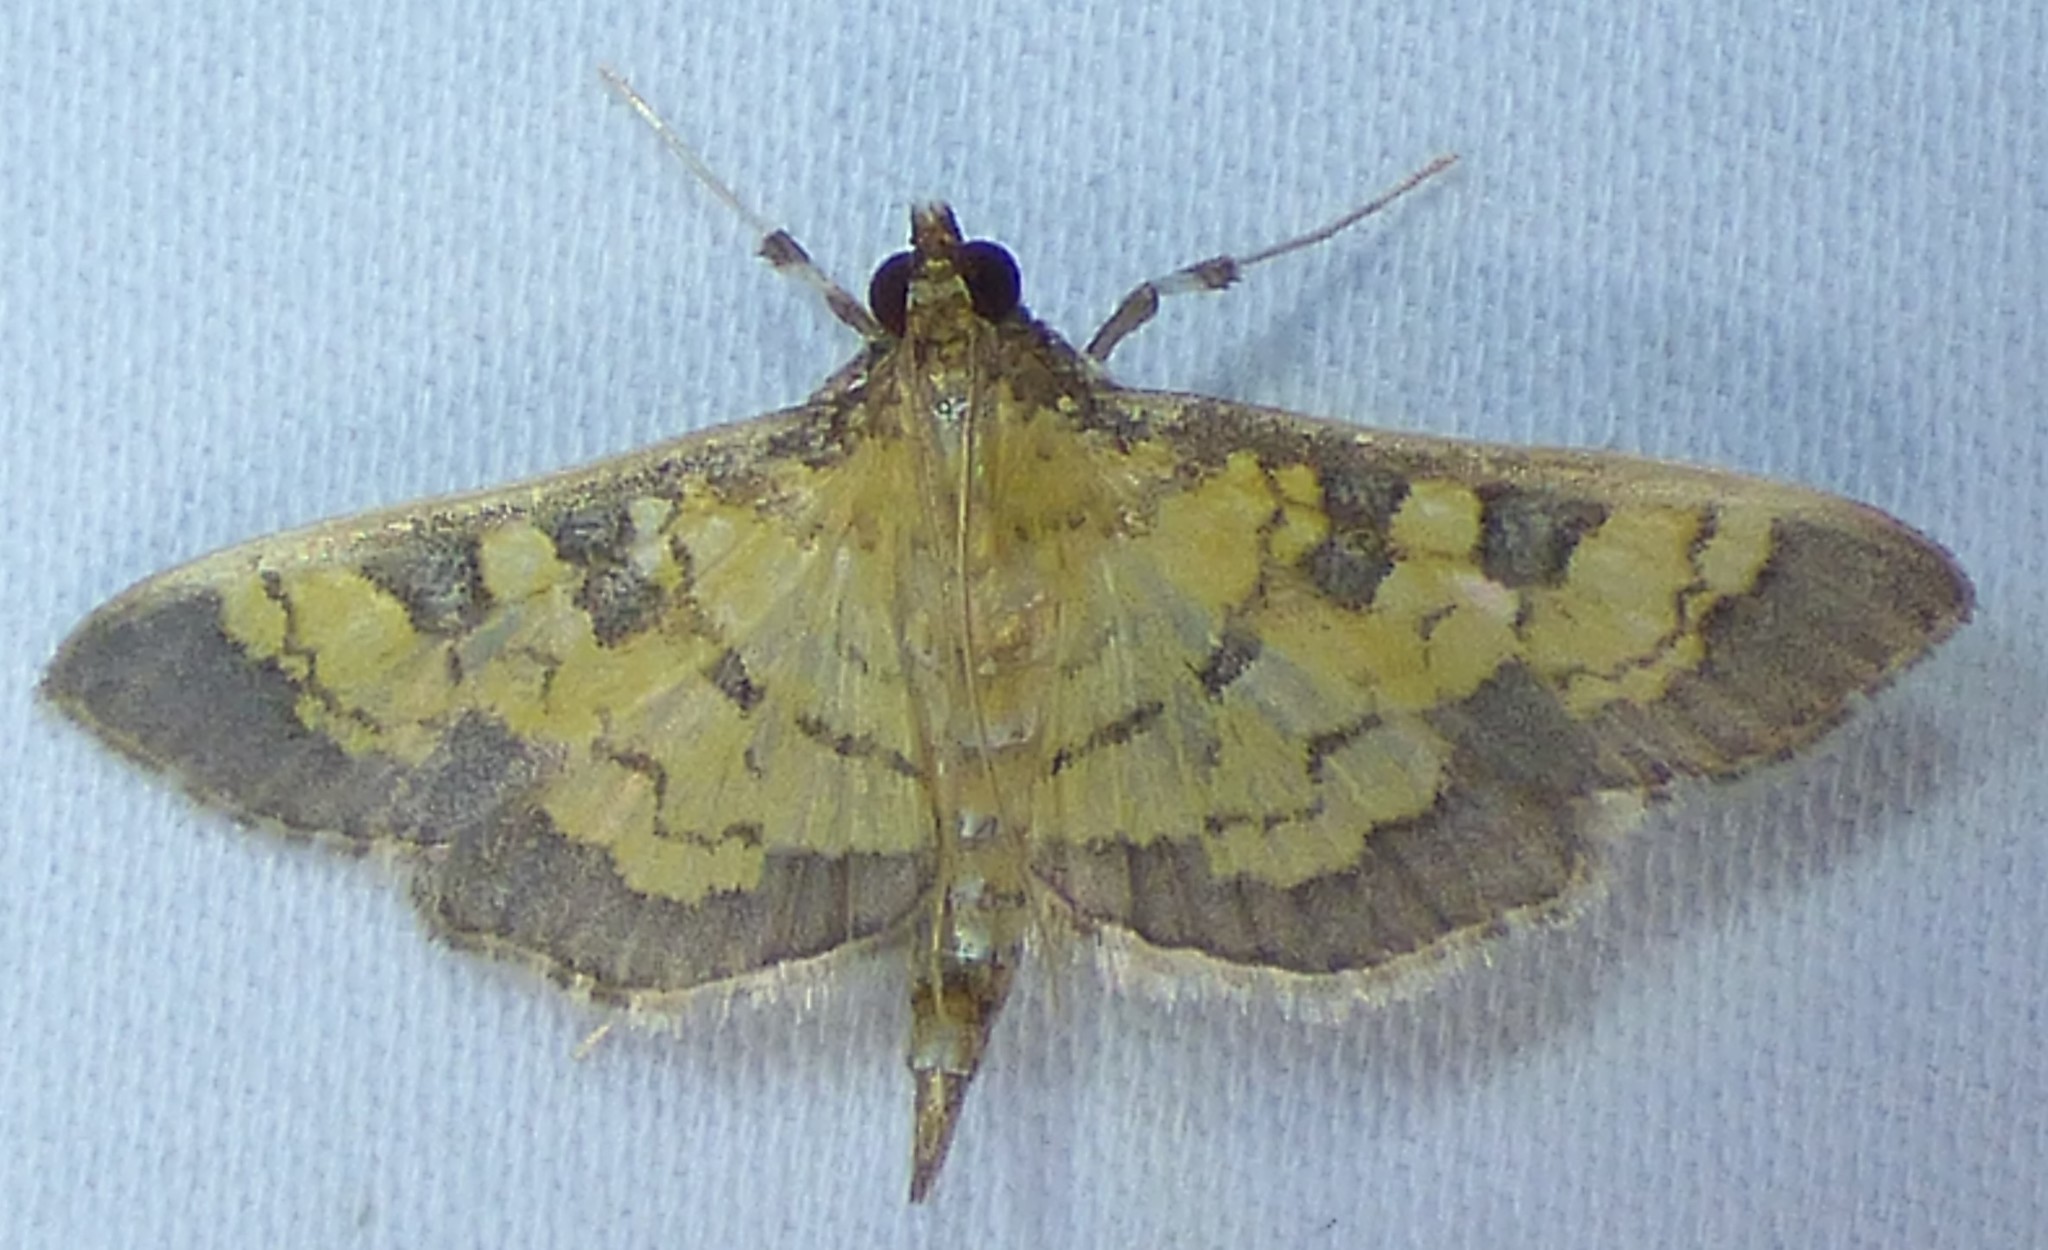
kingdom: Animalia
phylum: Arthropoda
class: Insecta
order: Lepidoptera
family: Crambidae
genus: Cryptographis
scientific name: Cryptographis elealis
